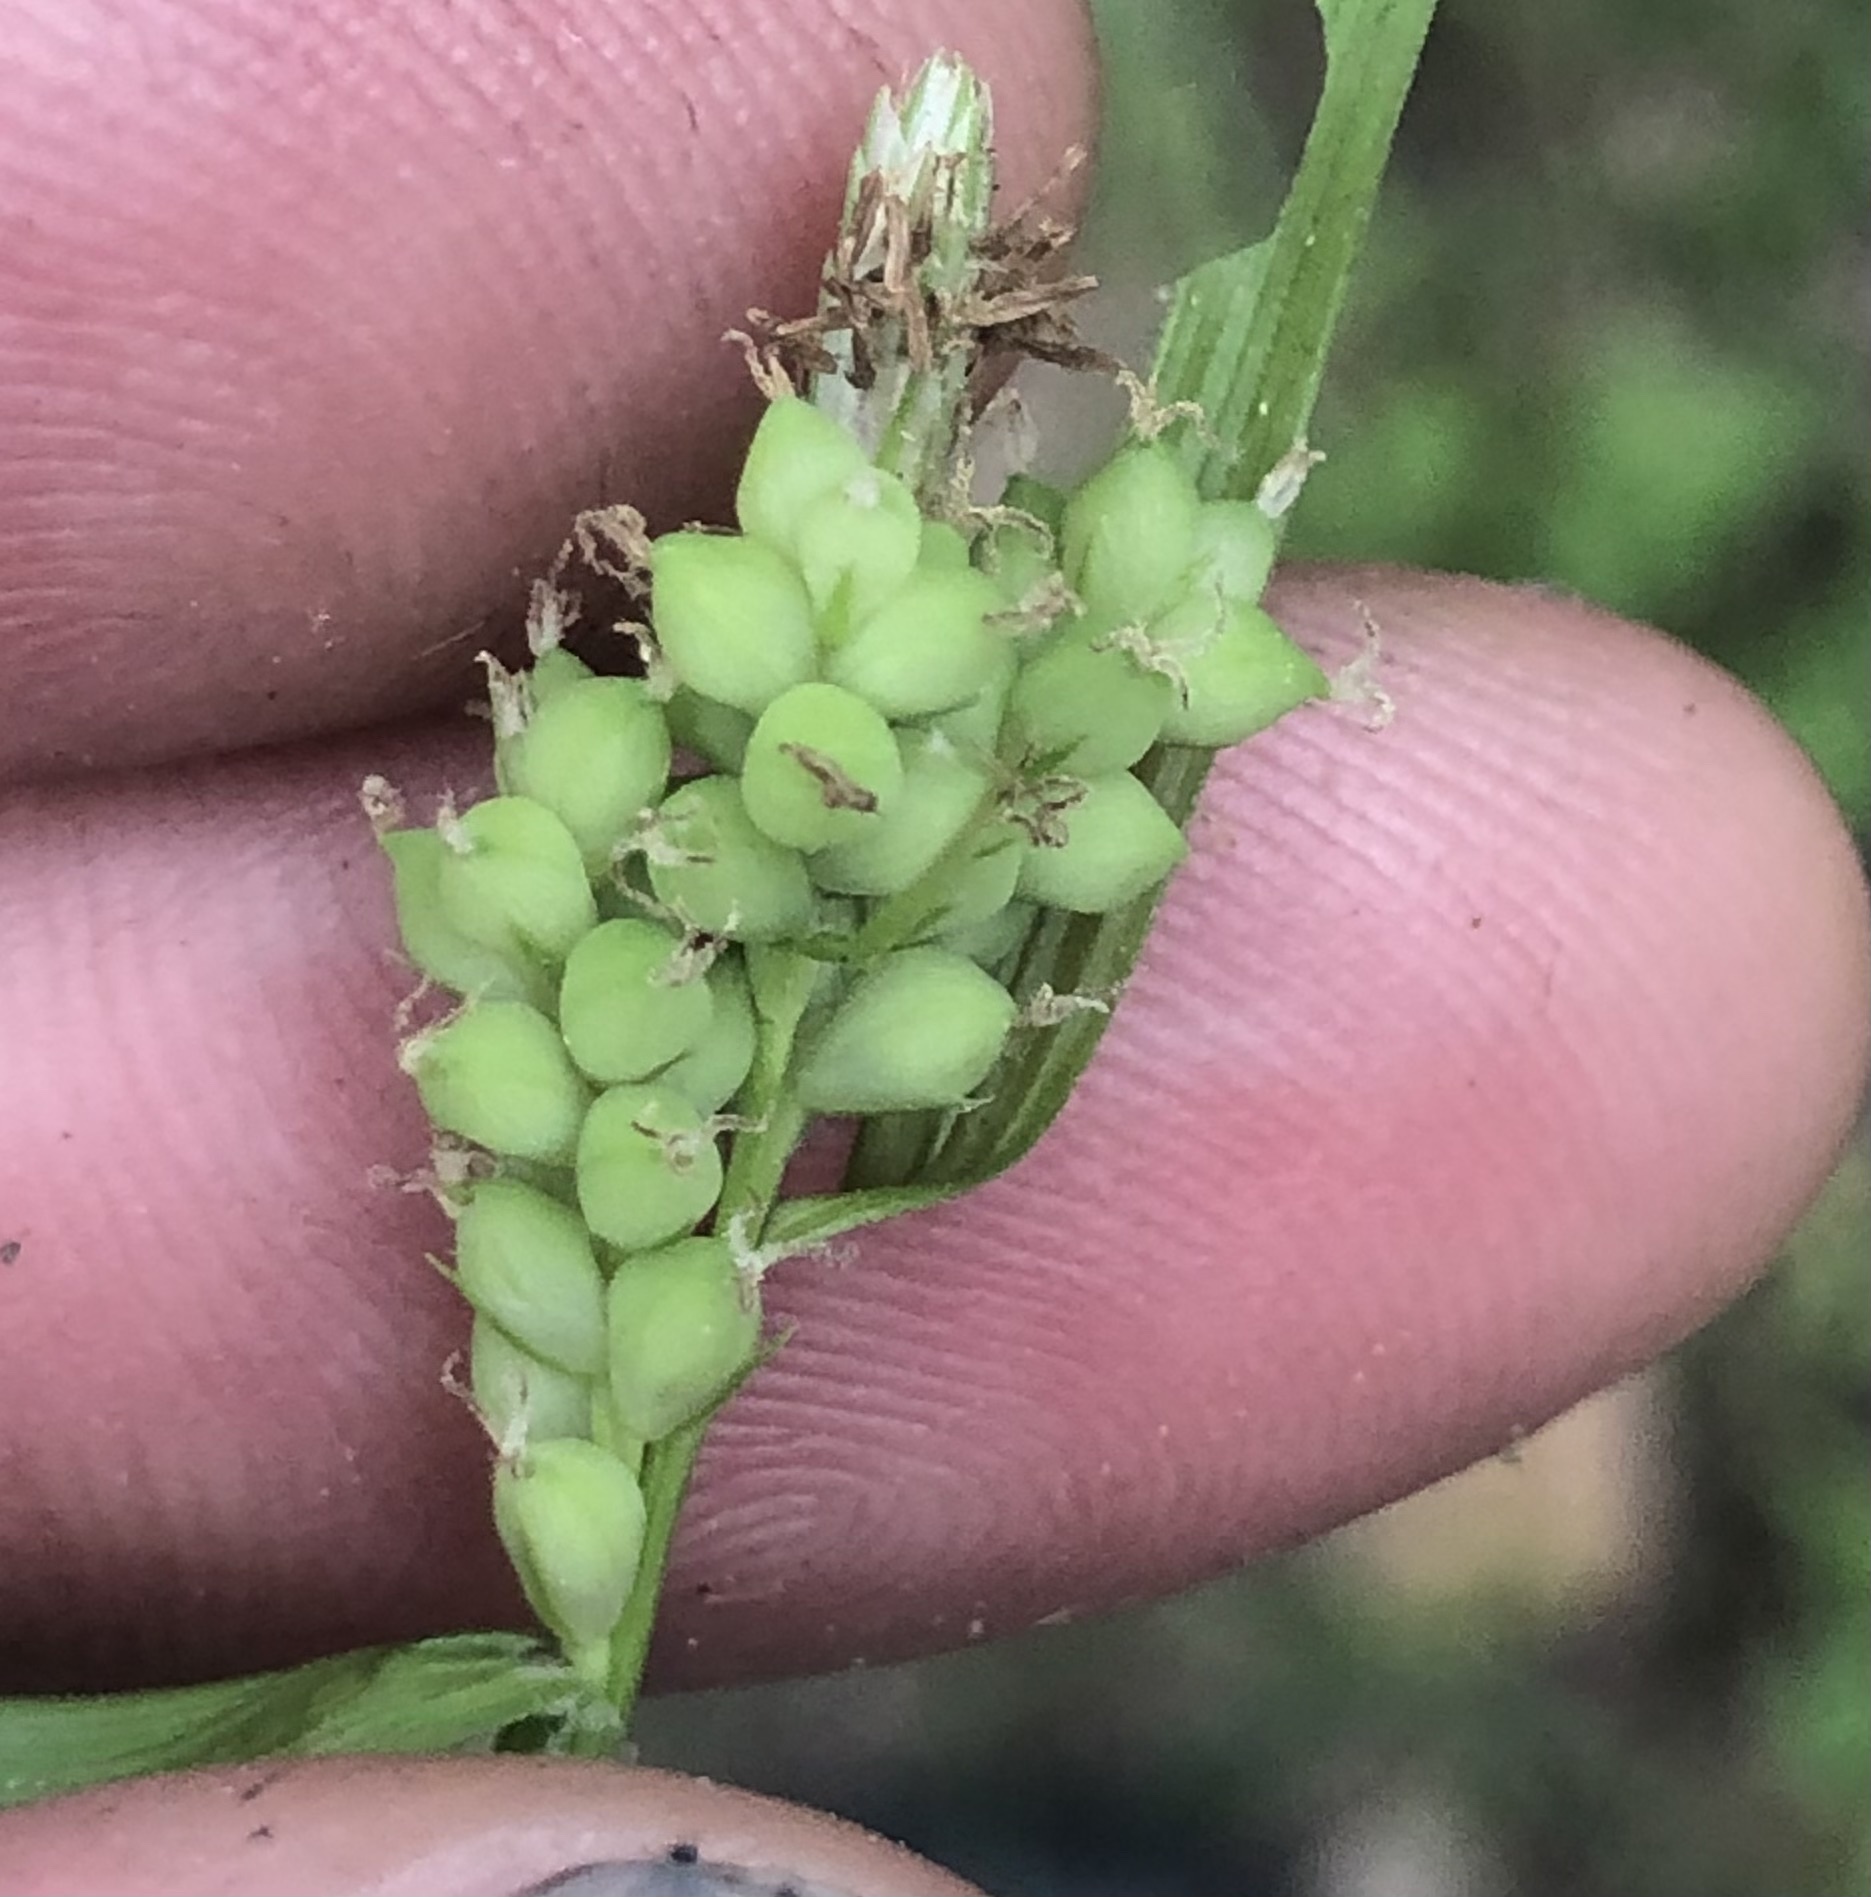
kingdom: Plantae
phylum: Tracheophyta
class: Liliopsida
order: Poales
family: Cyperaceae
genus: Carex
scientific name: Carex blanda
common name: Bland sedge
